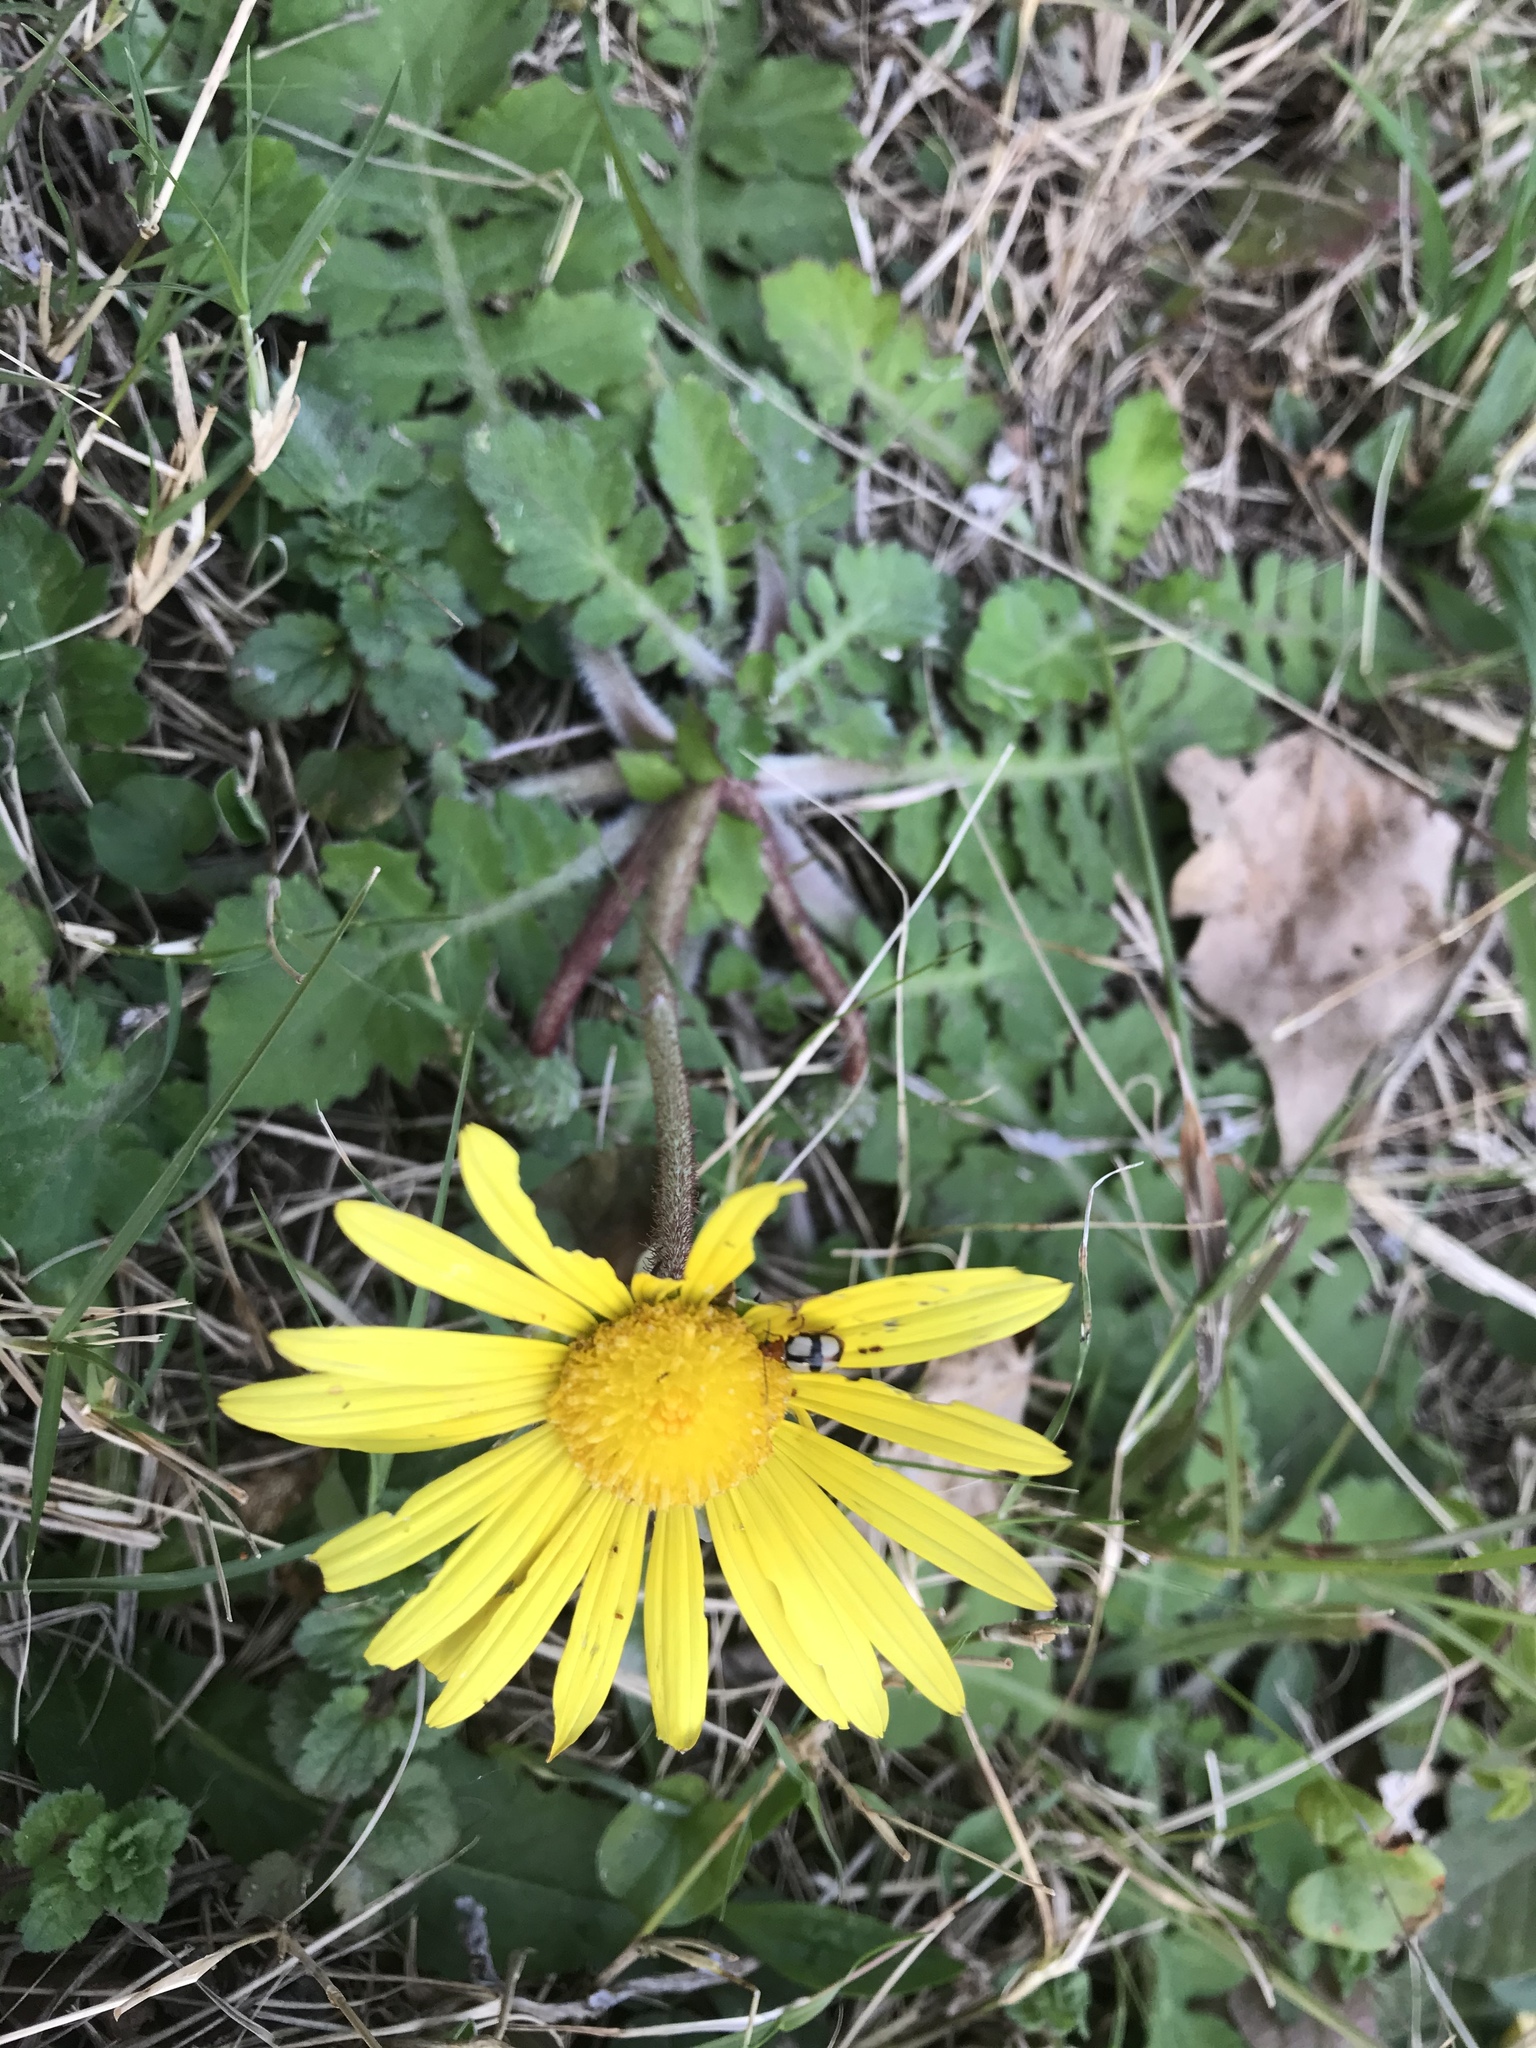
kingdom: Plantae
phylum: Tracheophyta
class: Magnoliopsida
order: Asterales
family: Asteraceae
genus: Arctotheca
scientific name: Arctotheca prostrata
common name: Capeweed
